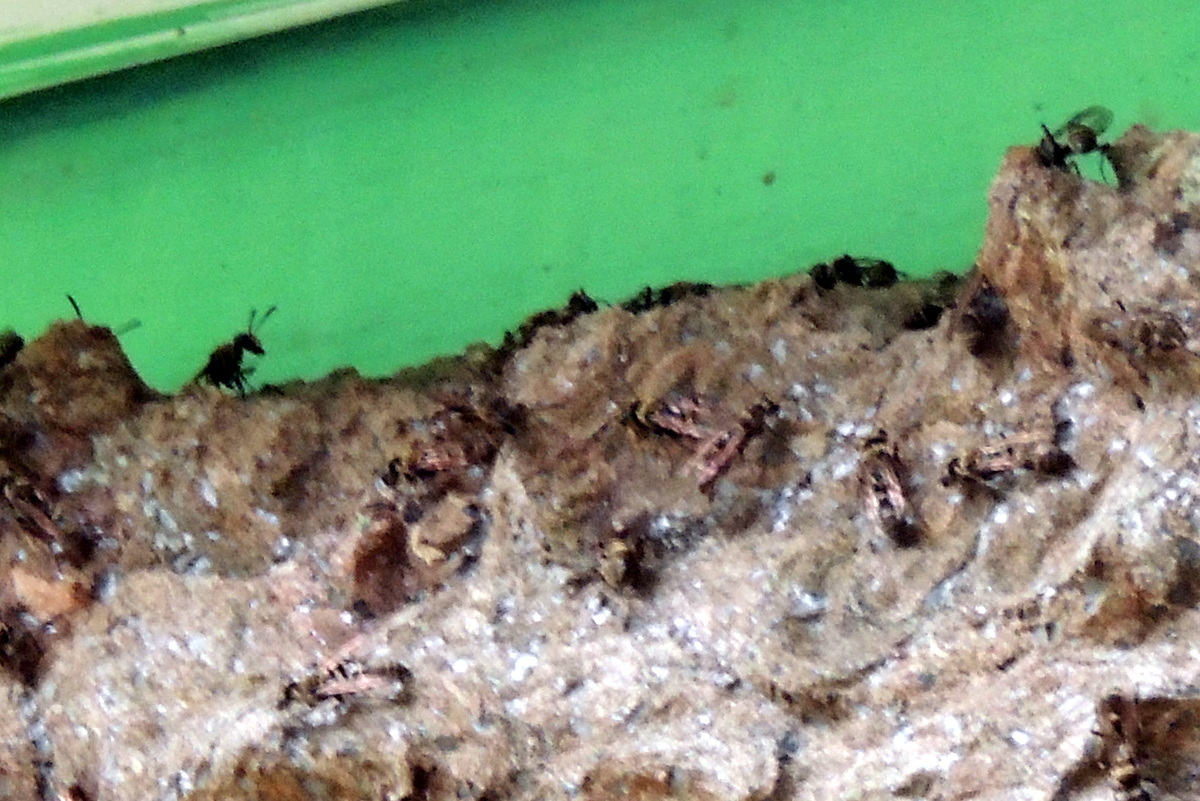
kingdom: Animalia
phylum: Arthropoda
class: Insecta
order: Hymenoptera
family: Vespidae
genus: Metapolybia
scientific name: Metapolybia mesoamerica
